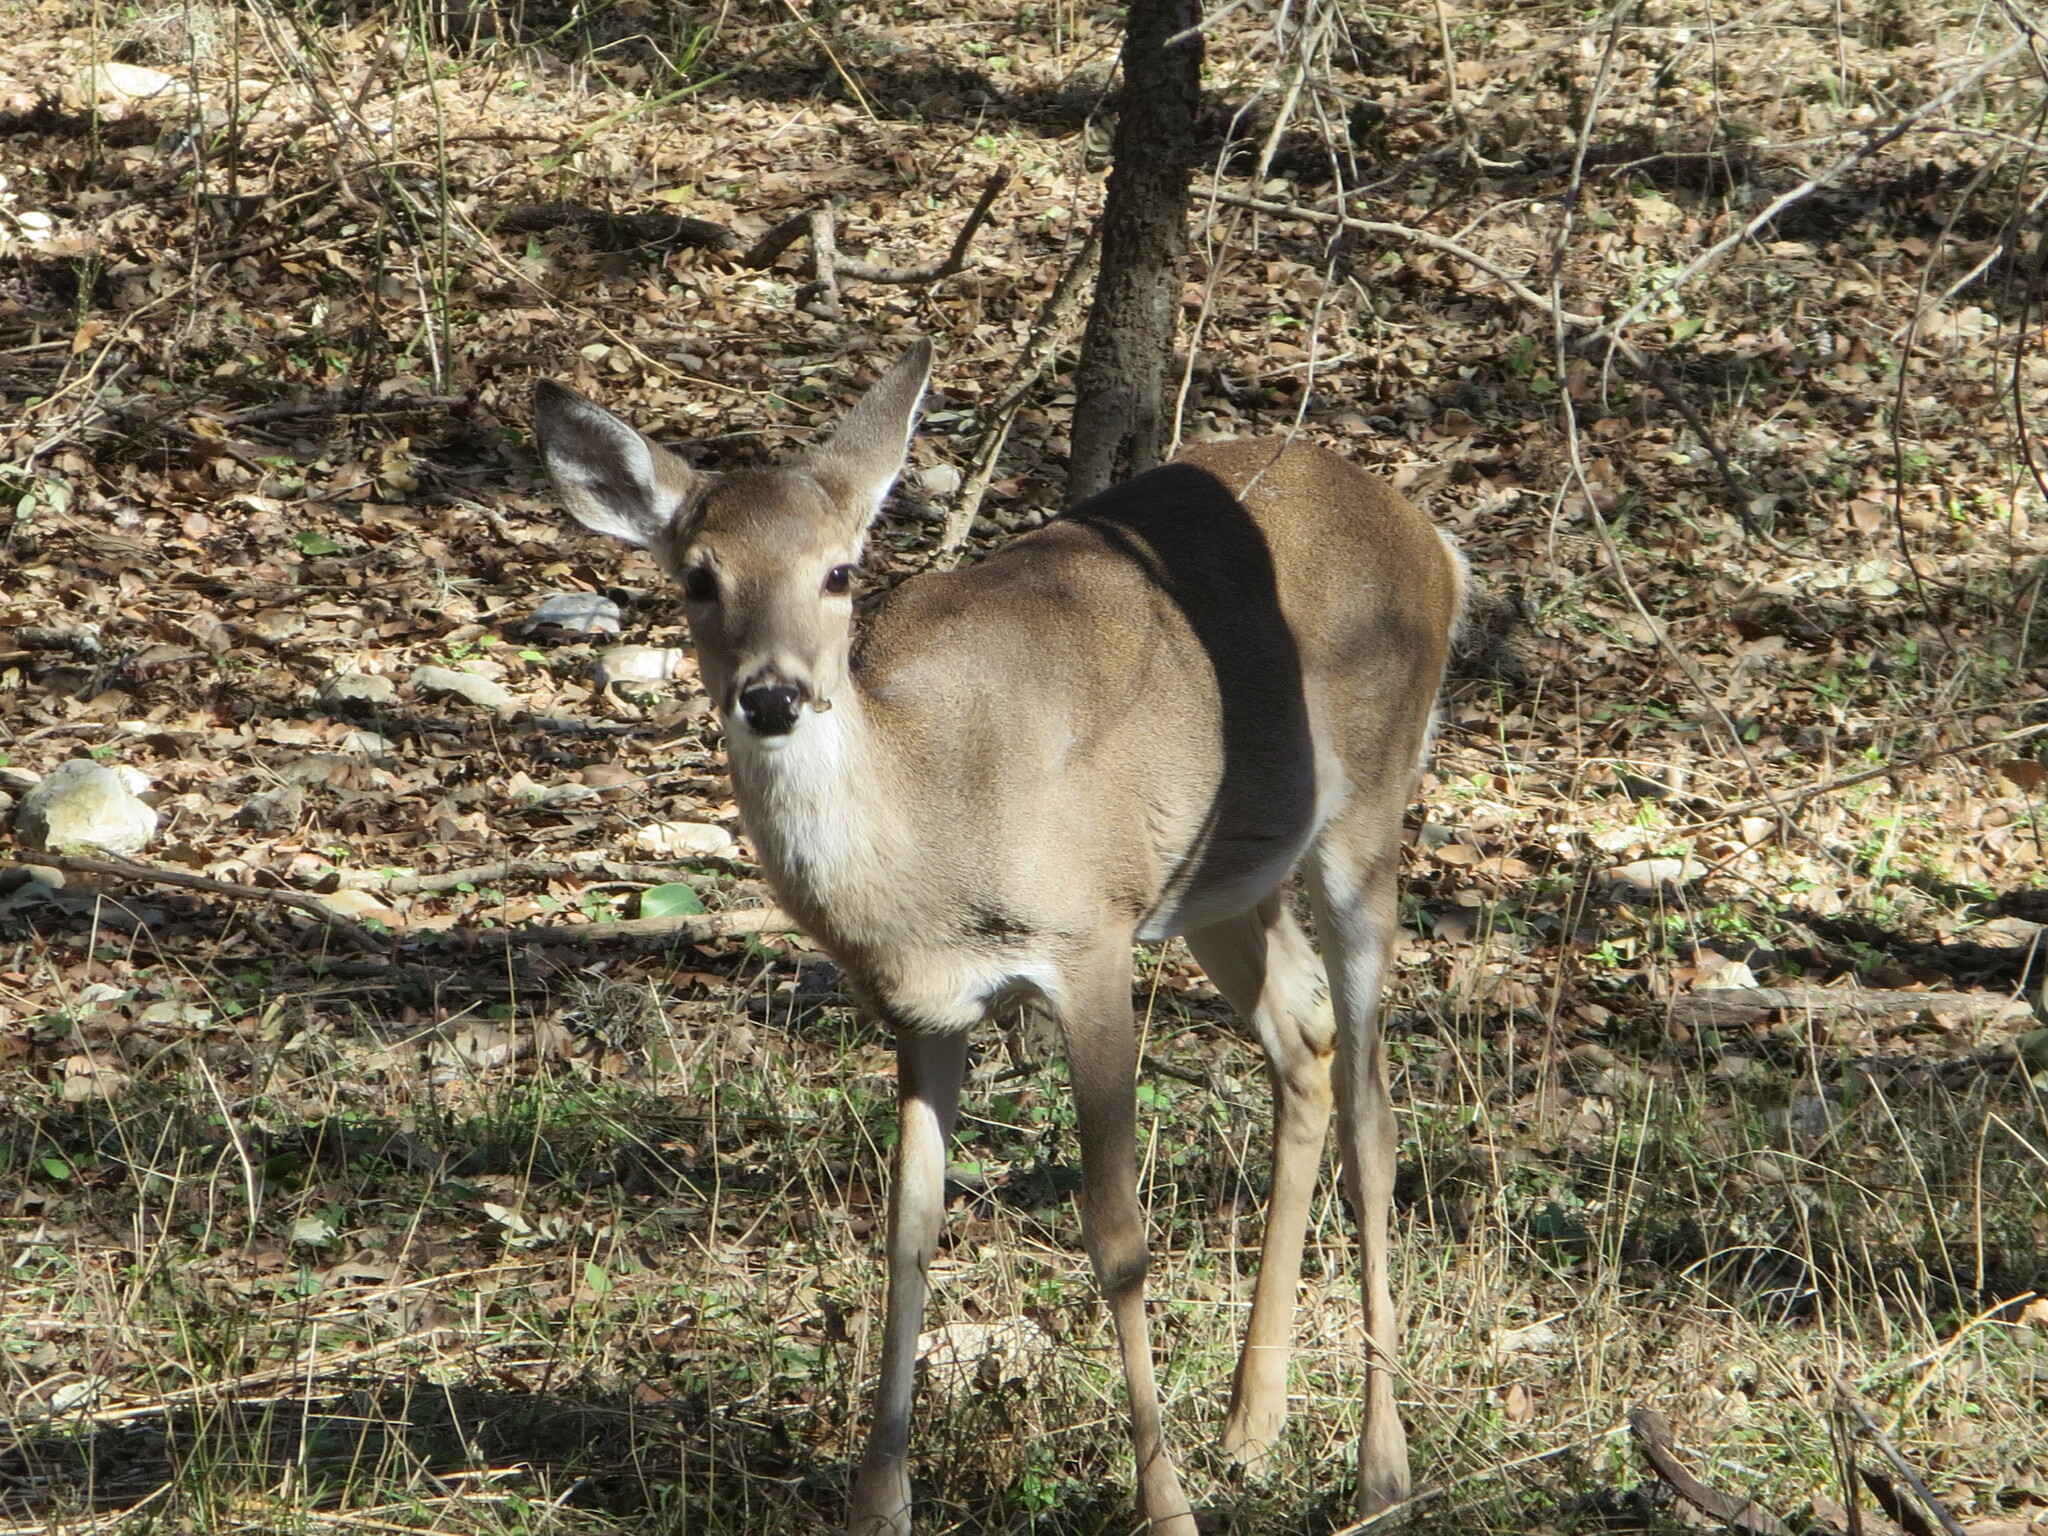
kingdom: Animalia
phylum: Chordata
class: Mammalia
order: Artiodactyla
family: Cervidae
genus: Odocoileus
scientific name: Odocoileus virginianus
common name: White-tailed deer
